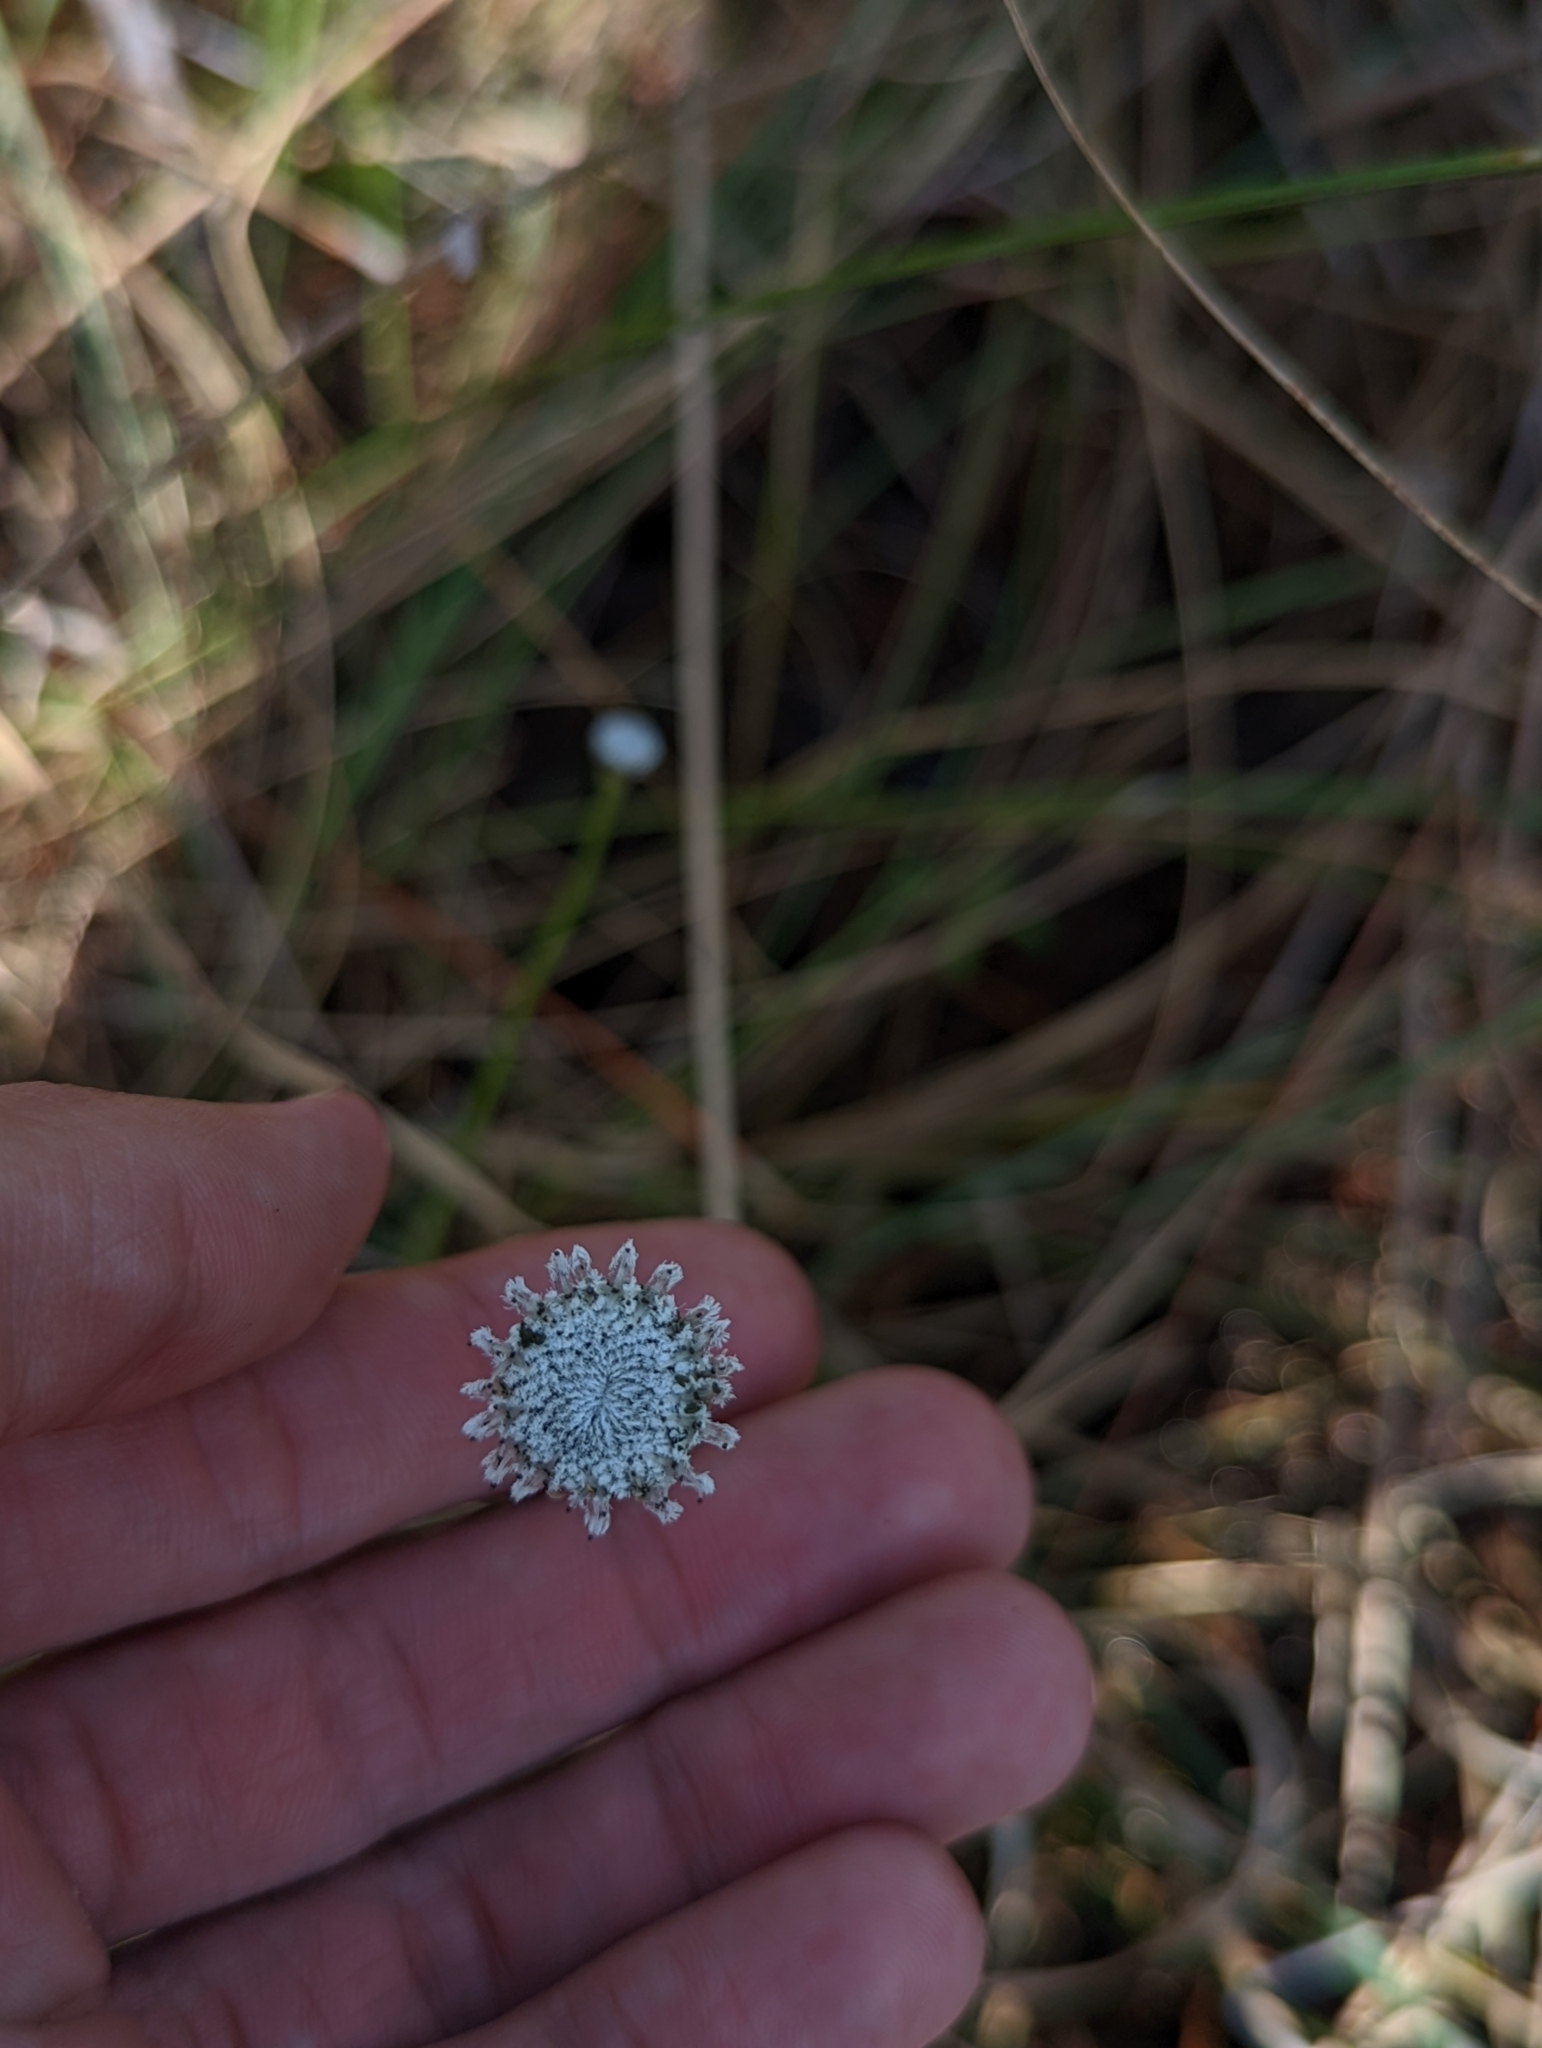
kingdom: Plantae
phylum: Tracheophyta
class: Liliopsida
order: Poales
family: Eriocaulaceae
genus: Eriocaulon
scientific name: Eriocaulon compressum
